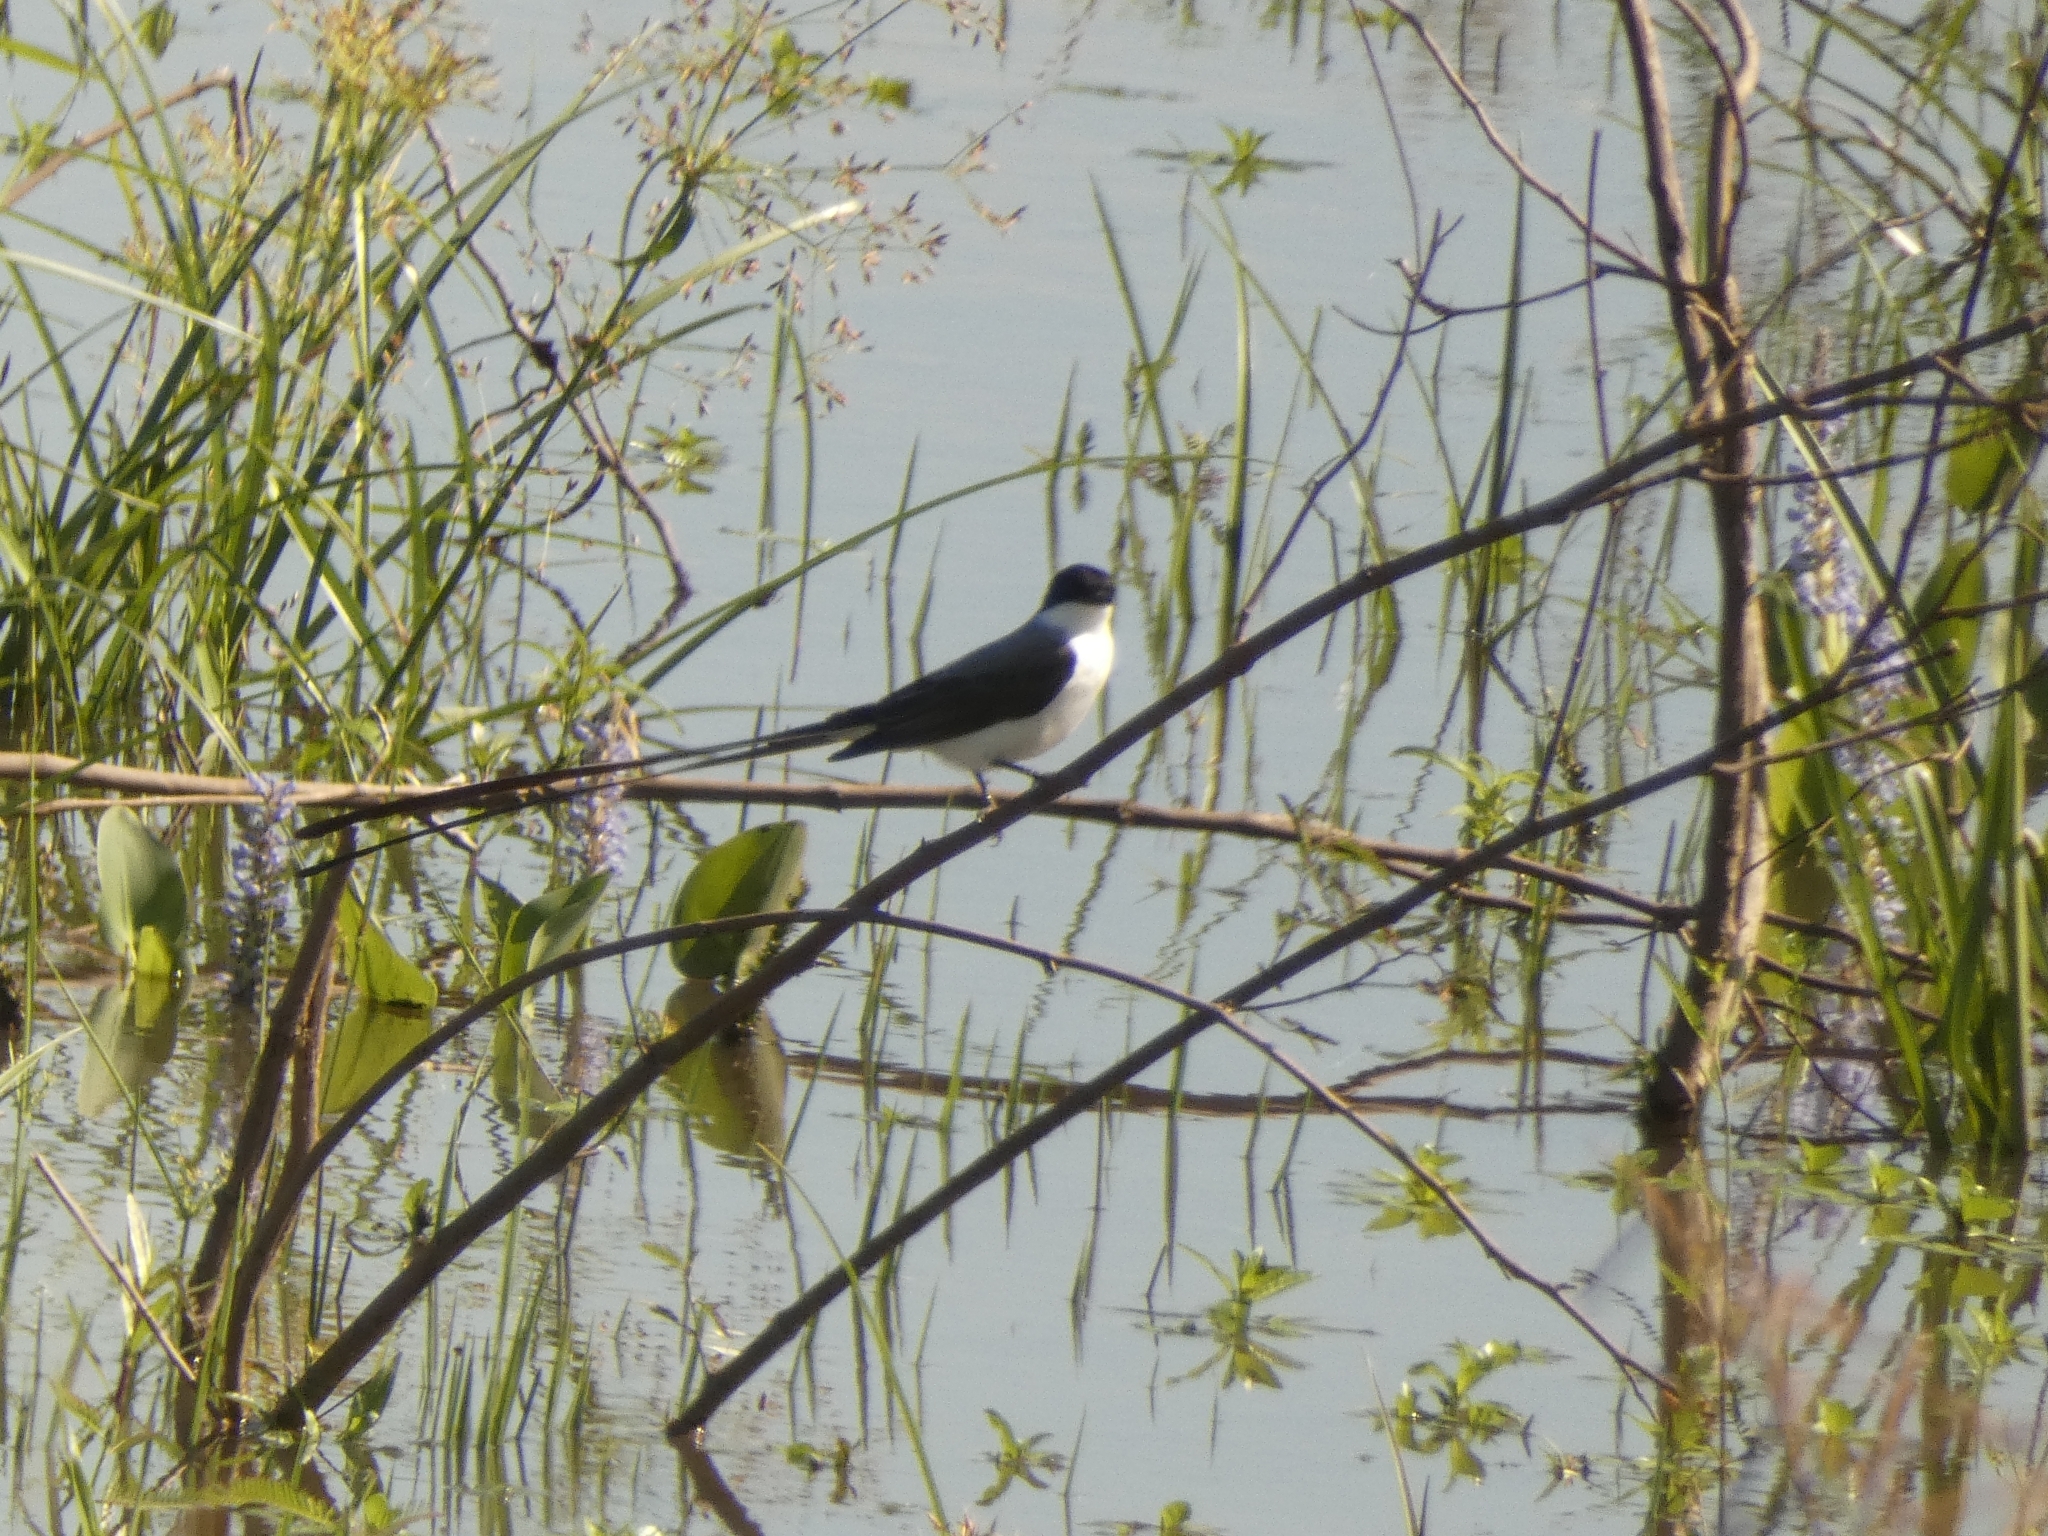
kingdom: Animalia
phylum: Chordata
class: Aves
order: Passeriformes
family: Tyrannidae
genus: Tyrannus
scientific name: Tyrannus savana
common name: Fork-tailed flycatcher
